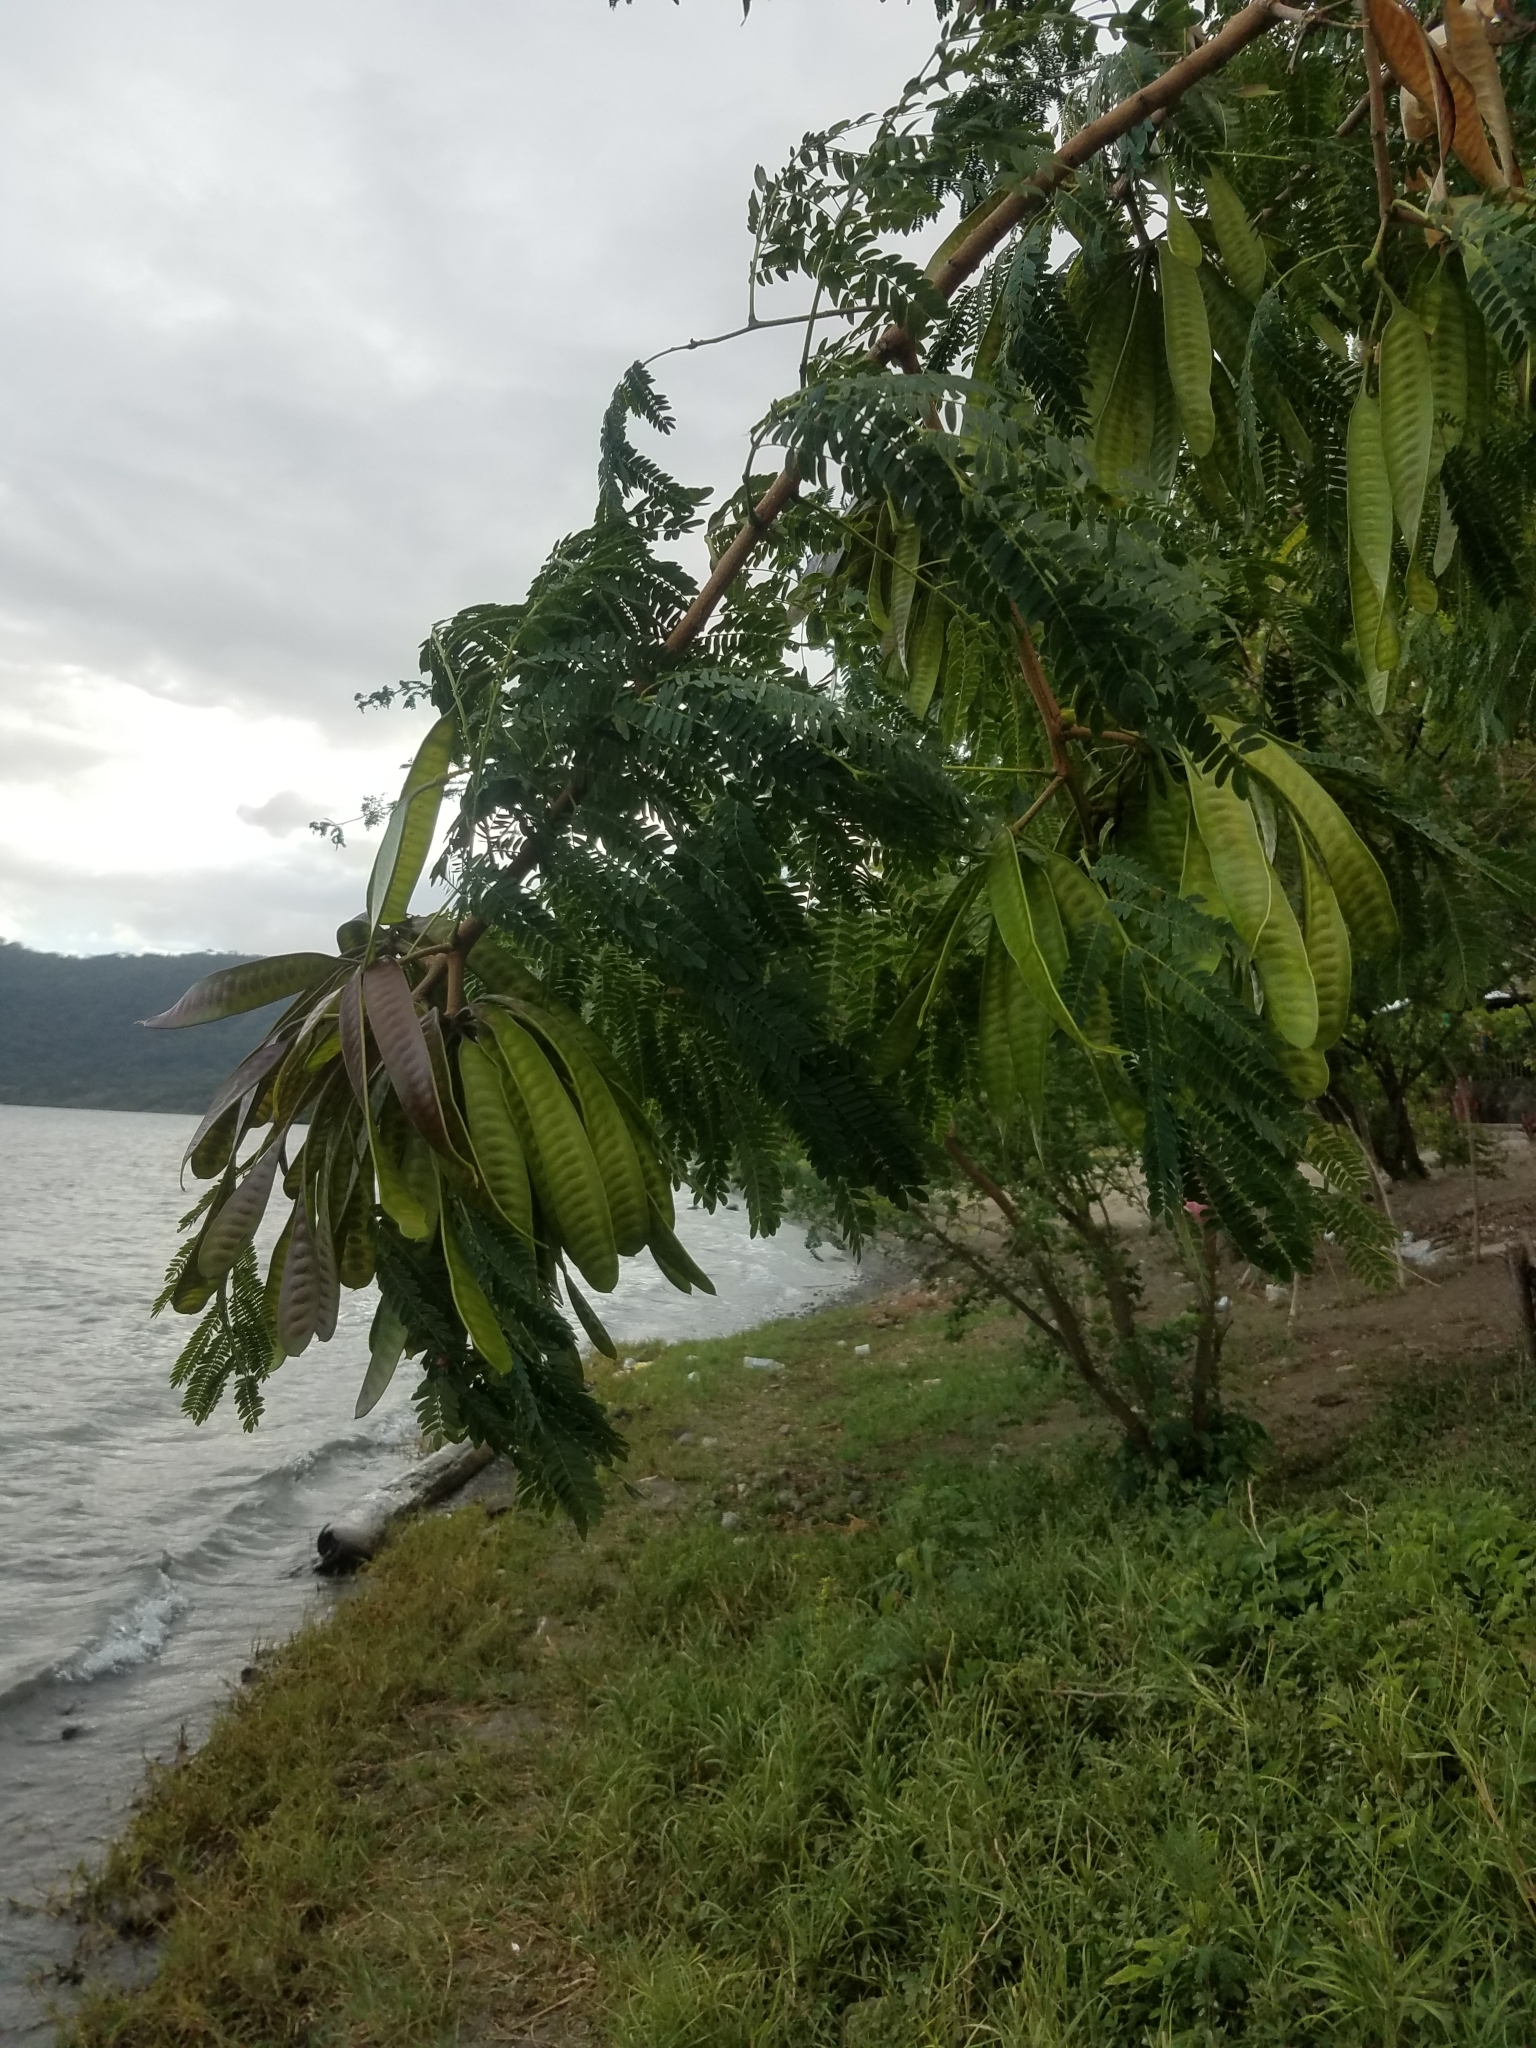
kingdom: Plantae
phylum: Tracheophyta
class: Magnoliopsida
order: Fabales
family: Fabaceae
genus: Leucaena
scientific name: Leucaena leucocephala
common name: White leadtree
